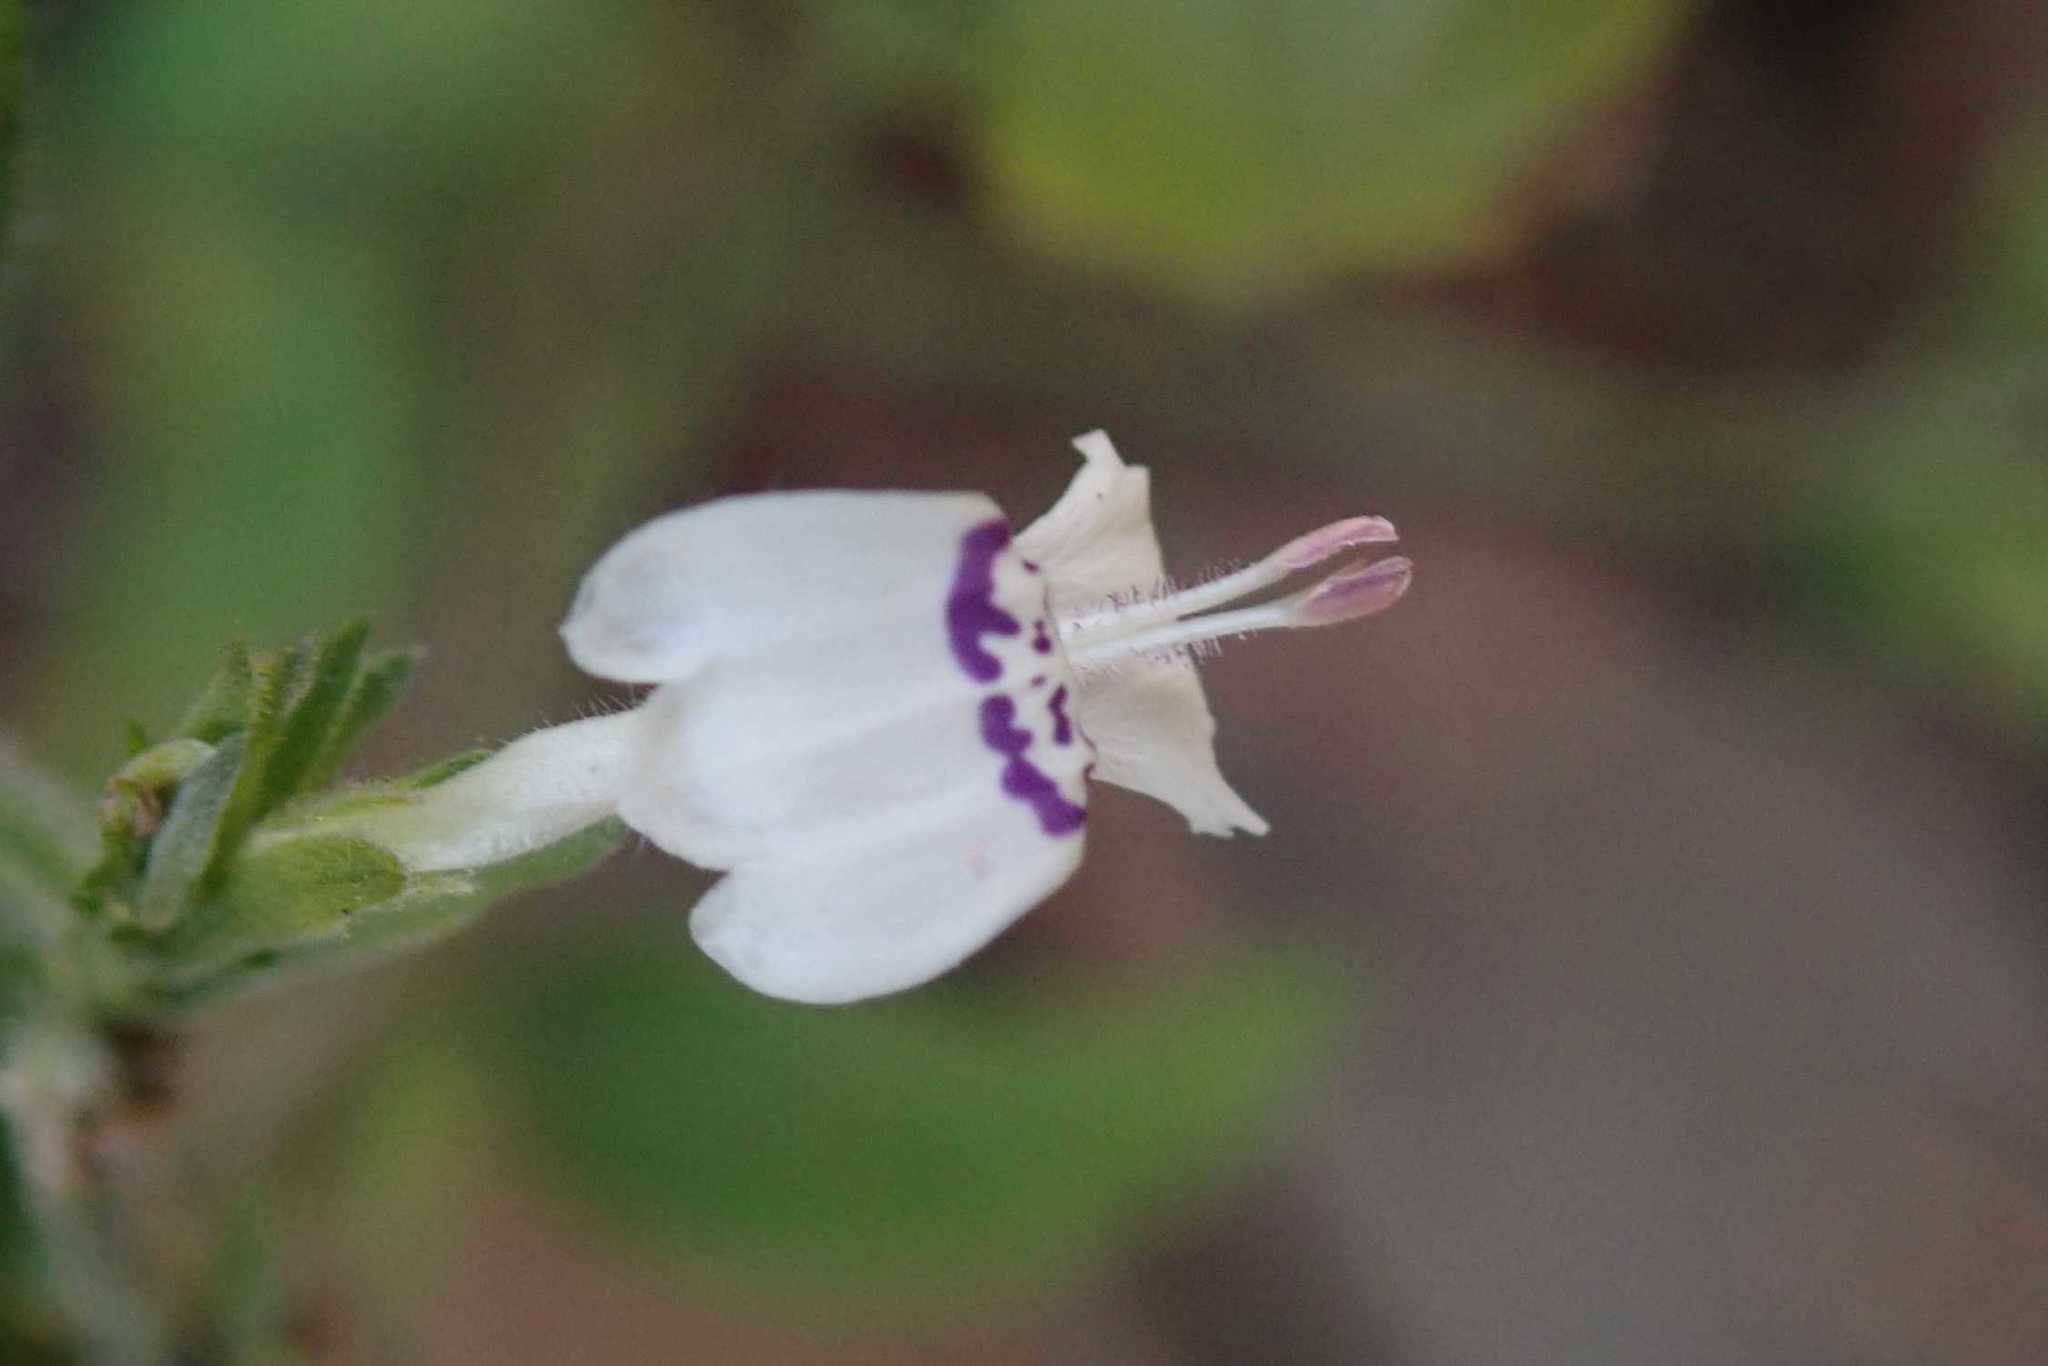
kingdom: Plantae
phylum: Tracheophyta
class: Magnoliopsida
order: Lamiales
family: Acanthaceae
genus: Hypoestes
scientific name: Hypoestes forskaolii
